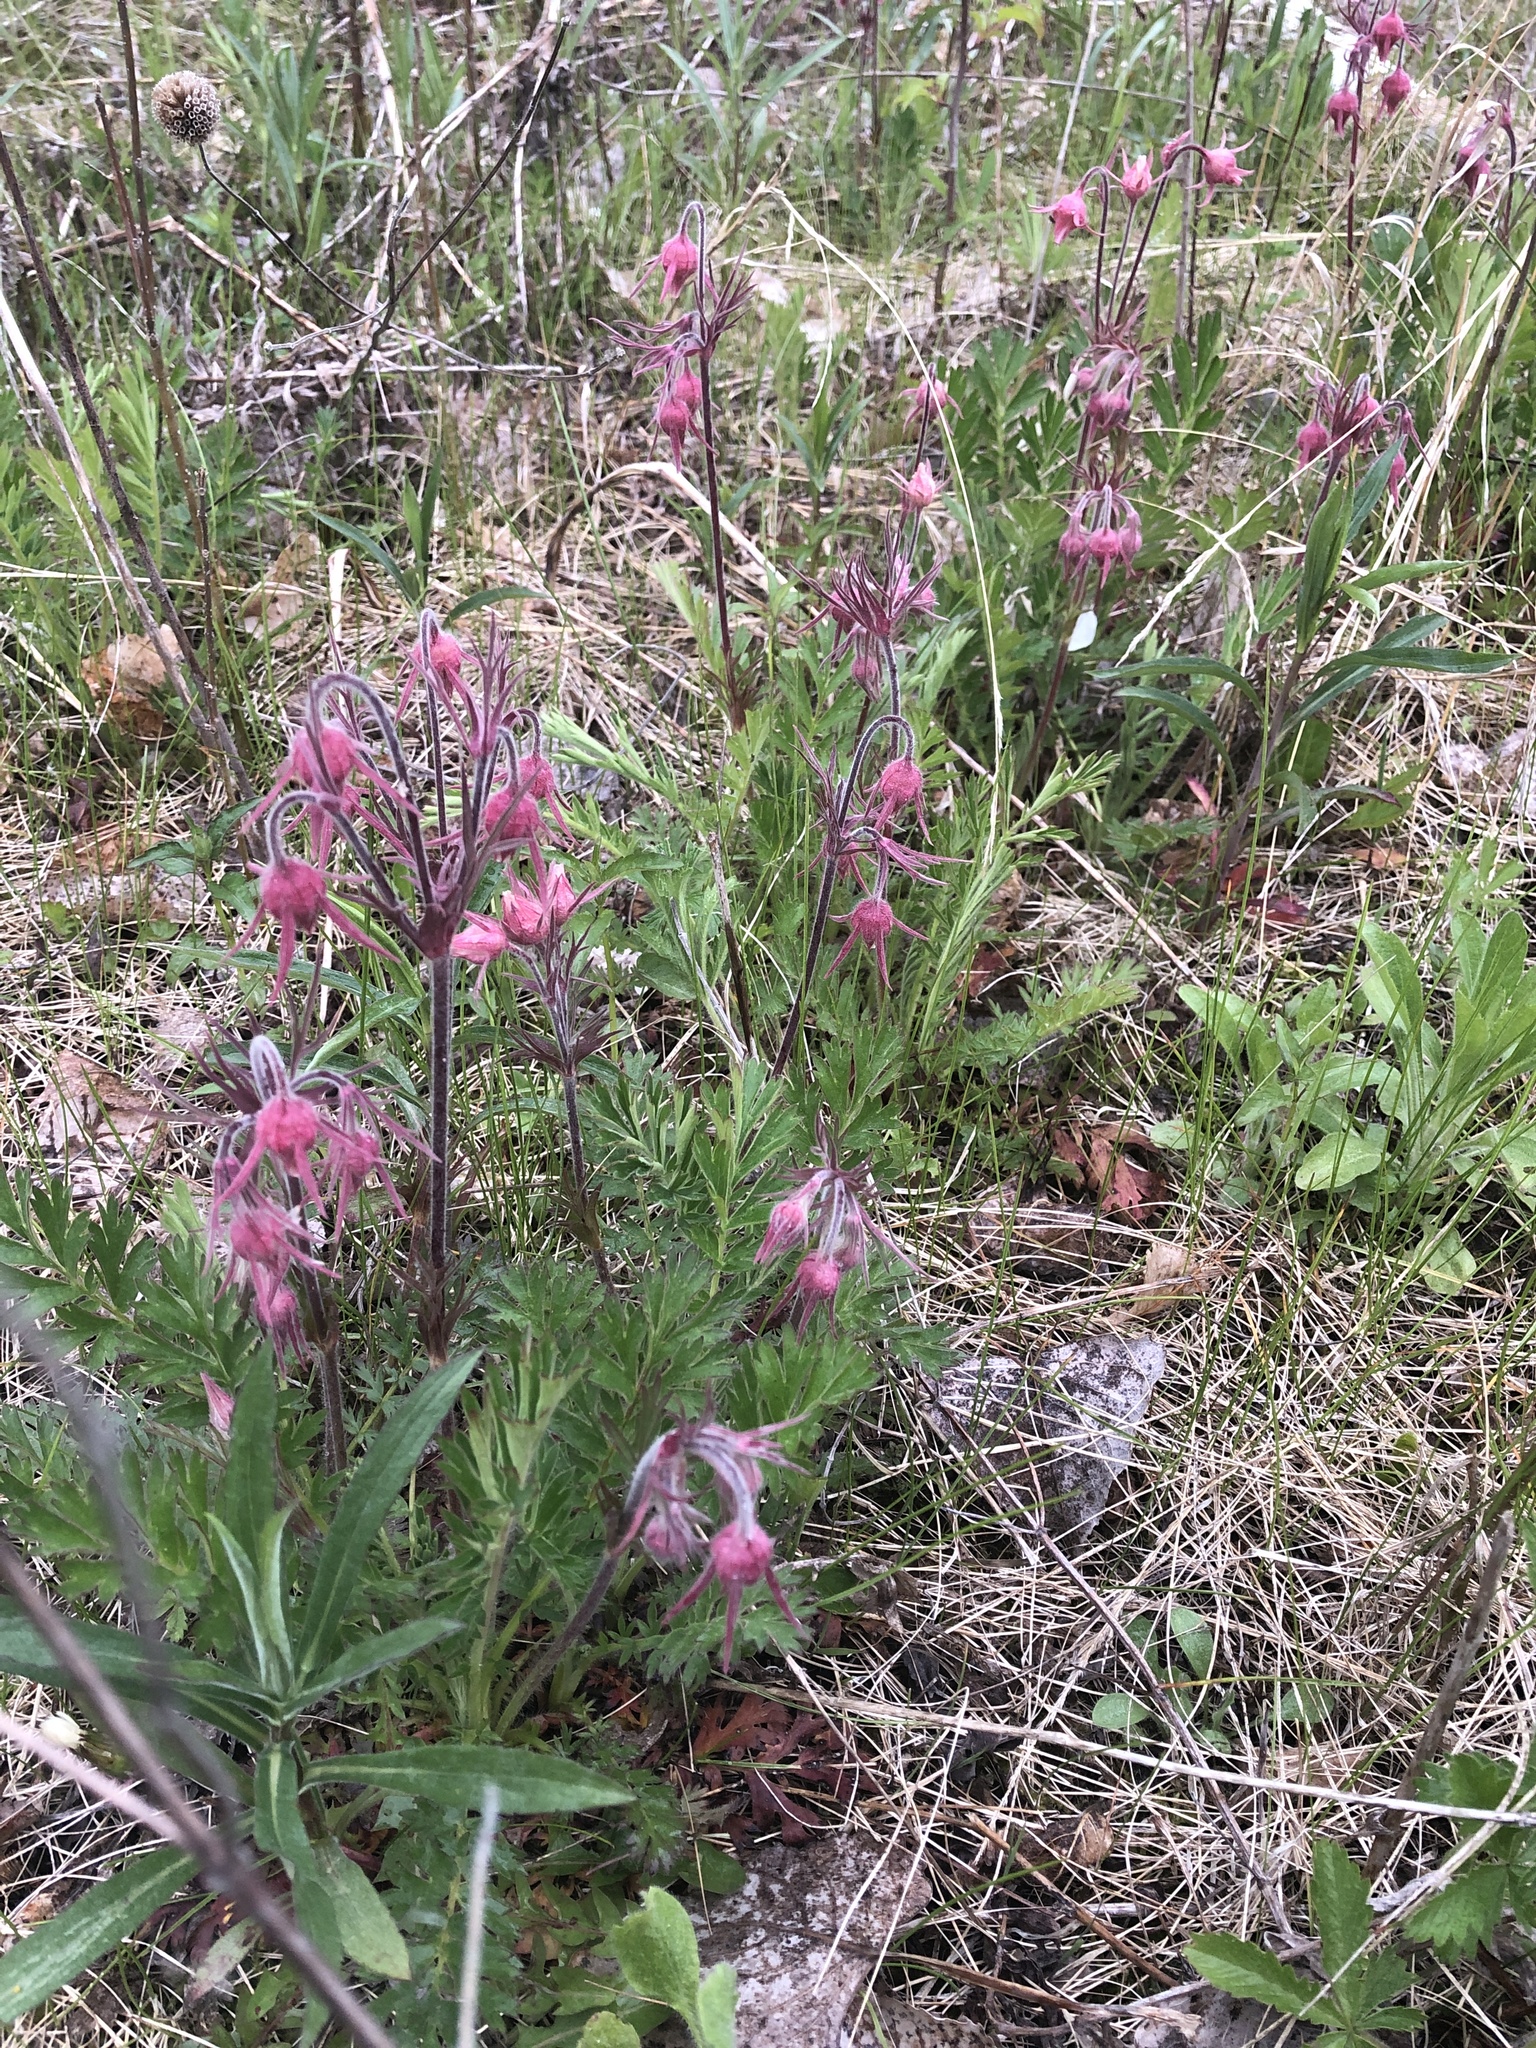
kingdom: Plantae
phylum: Tracheophyta
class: Magnoliopsida
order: Rosales
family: Rosaceae
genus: Geum
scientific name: Geum triflorum
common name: Old man's whiskers
